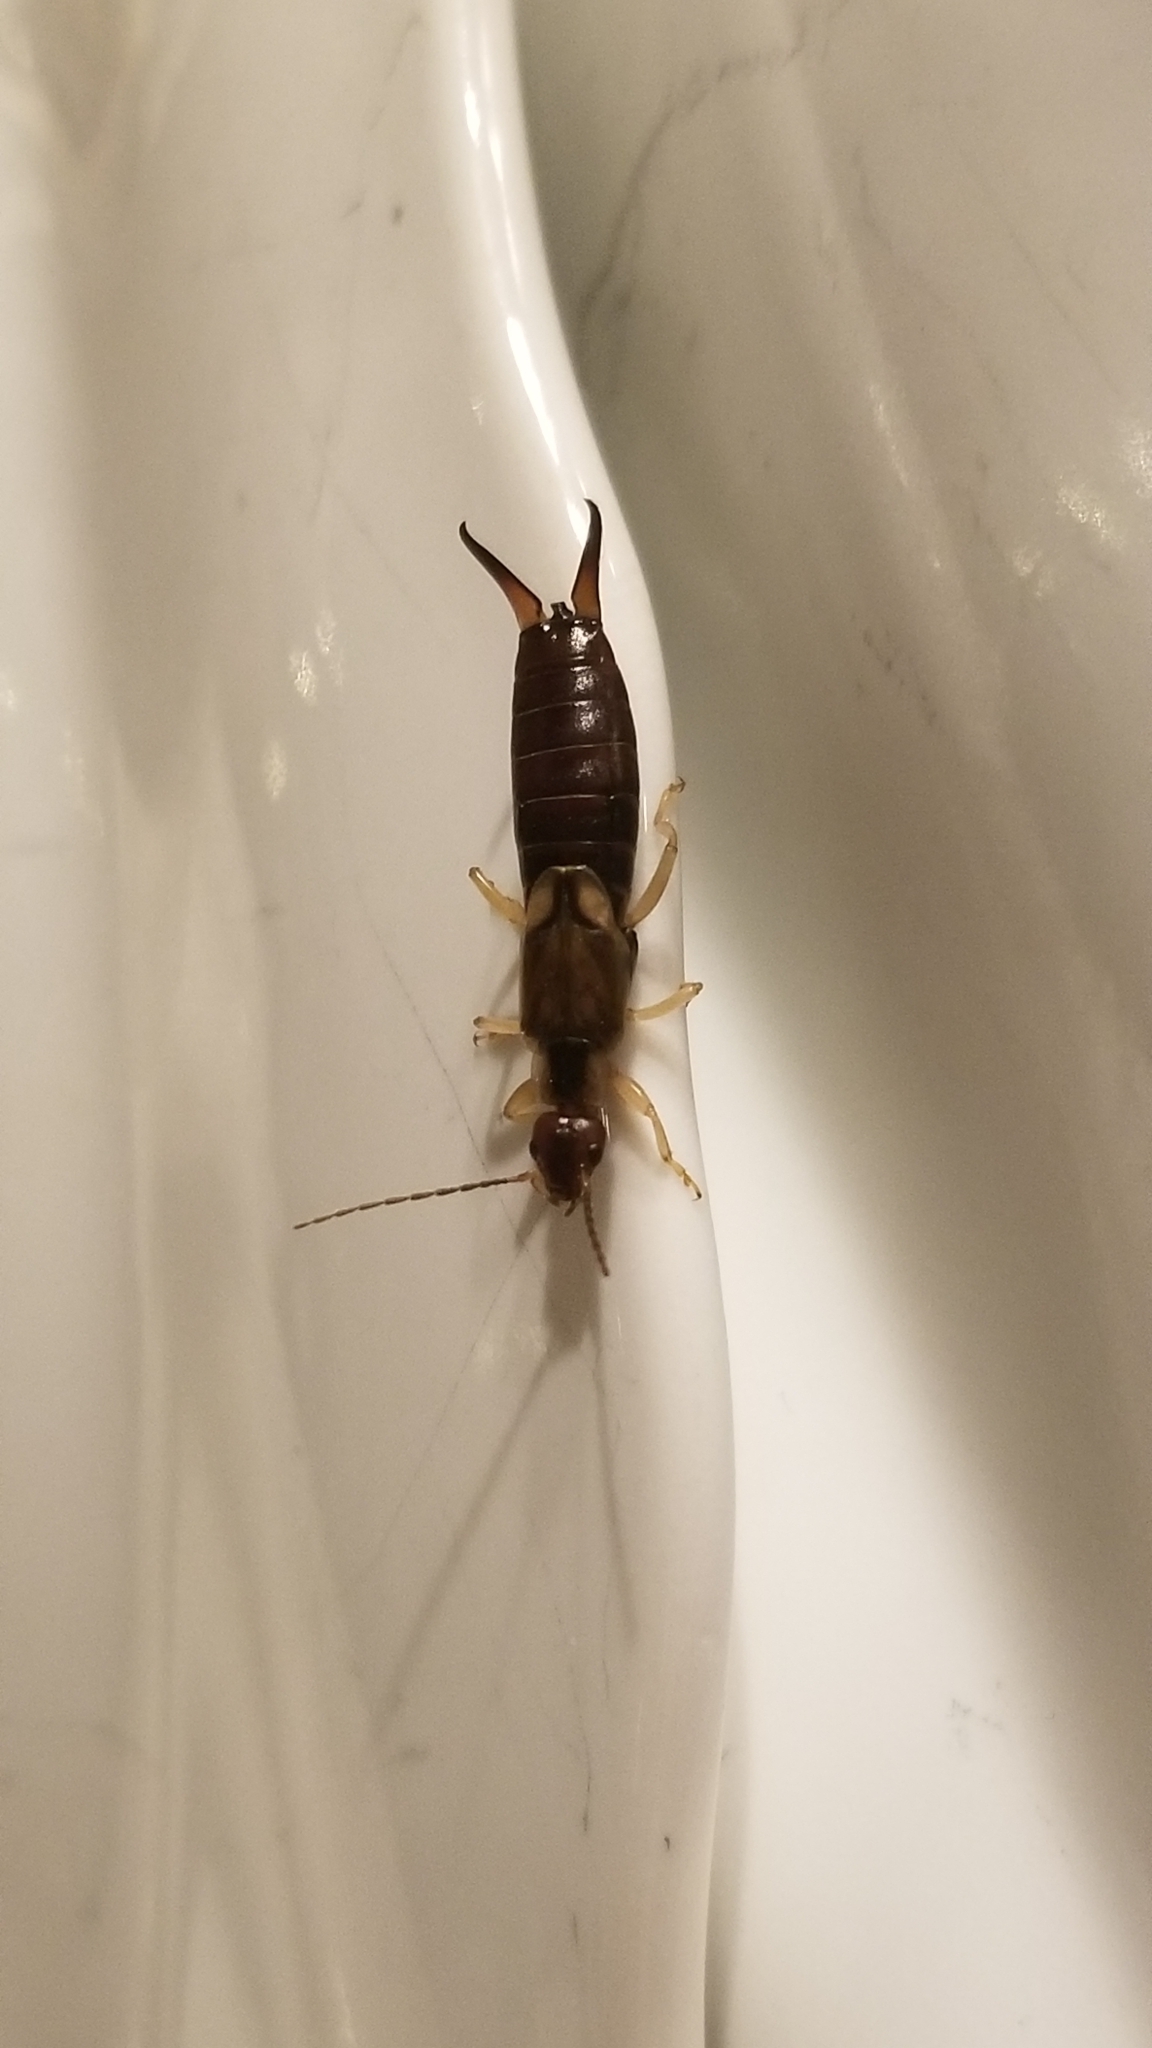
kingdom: Animalia
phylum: Arthropoda
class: Insecta
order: Dermaptera
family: Forficulidae
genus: Forficula
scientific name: Forficula dentata
